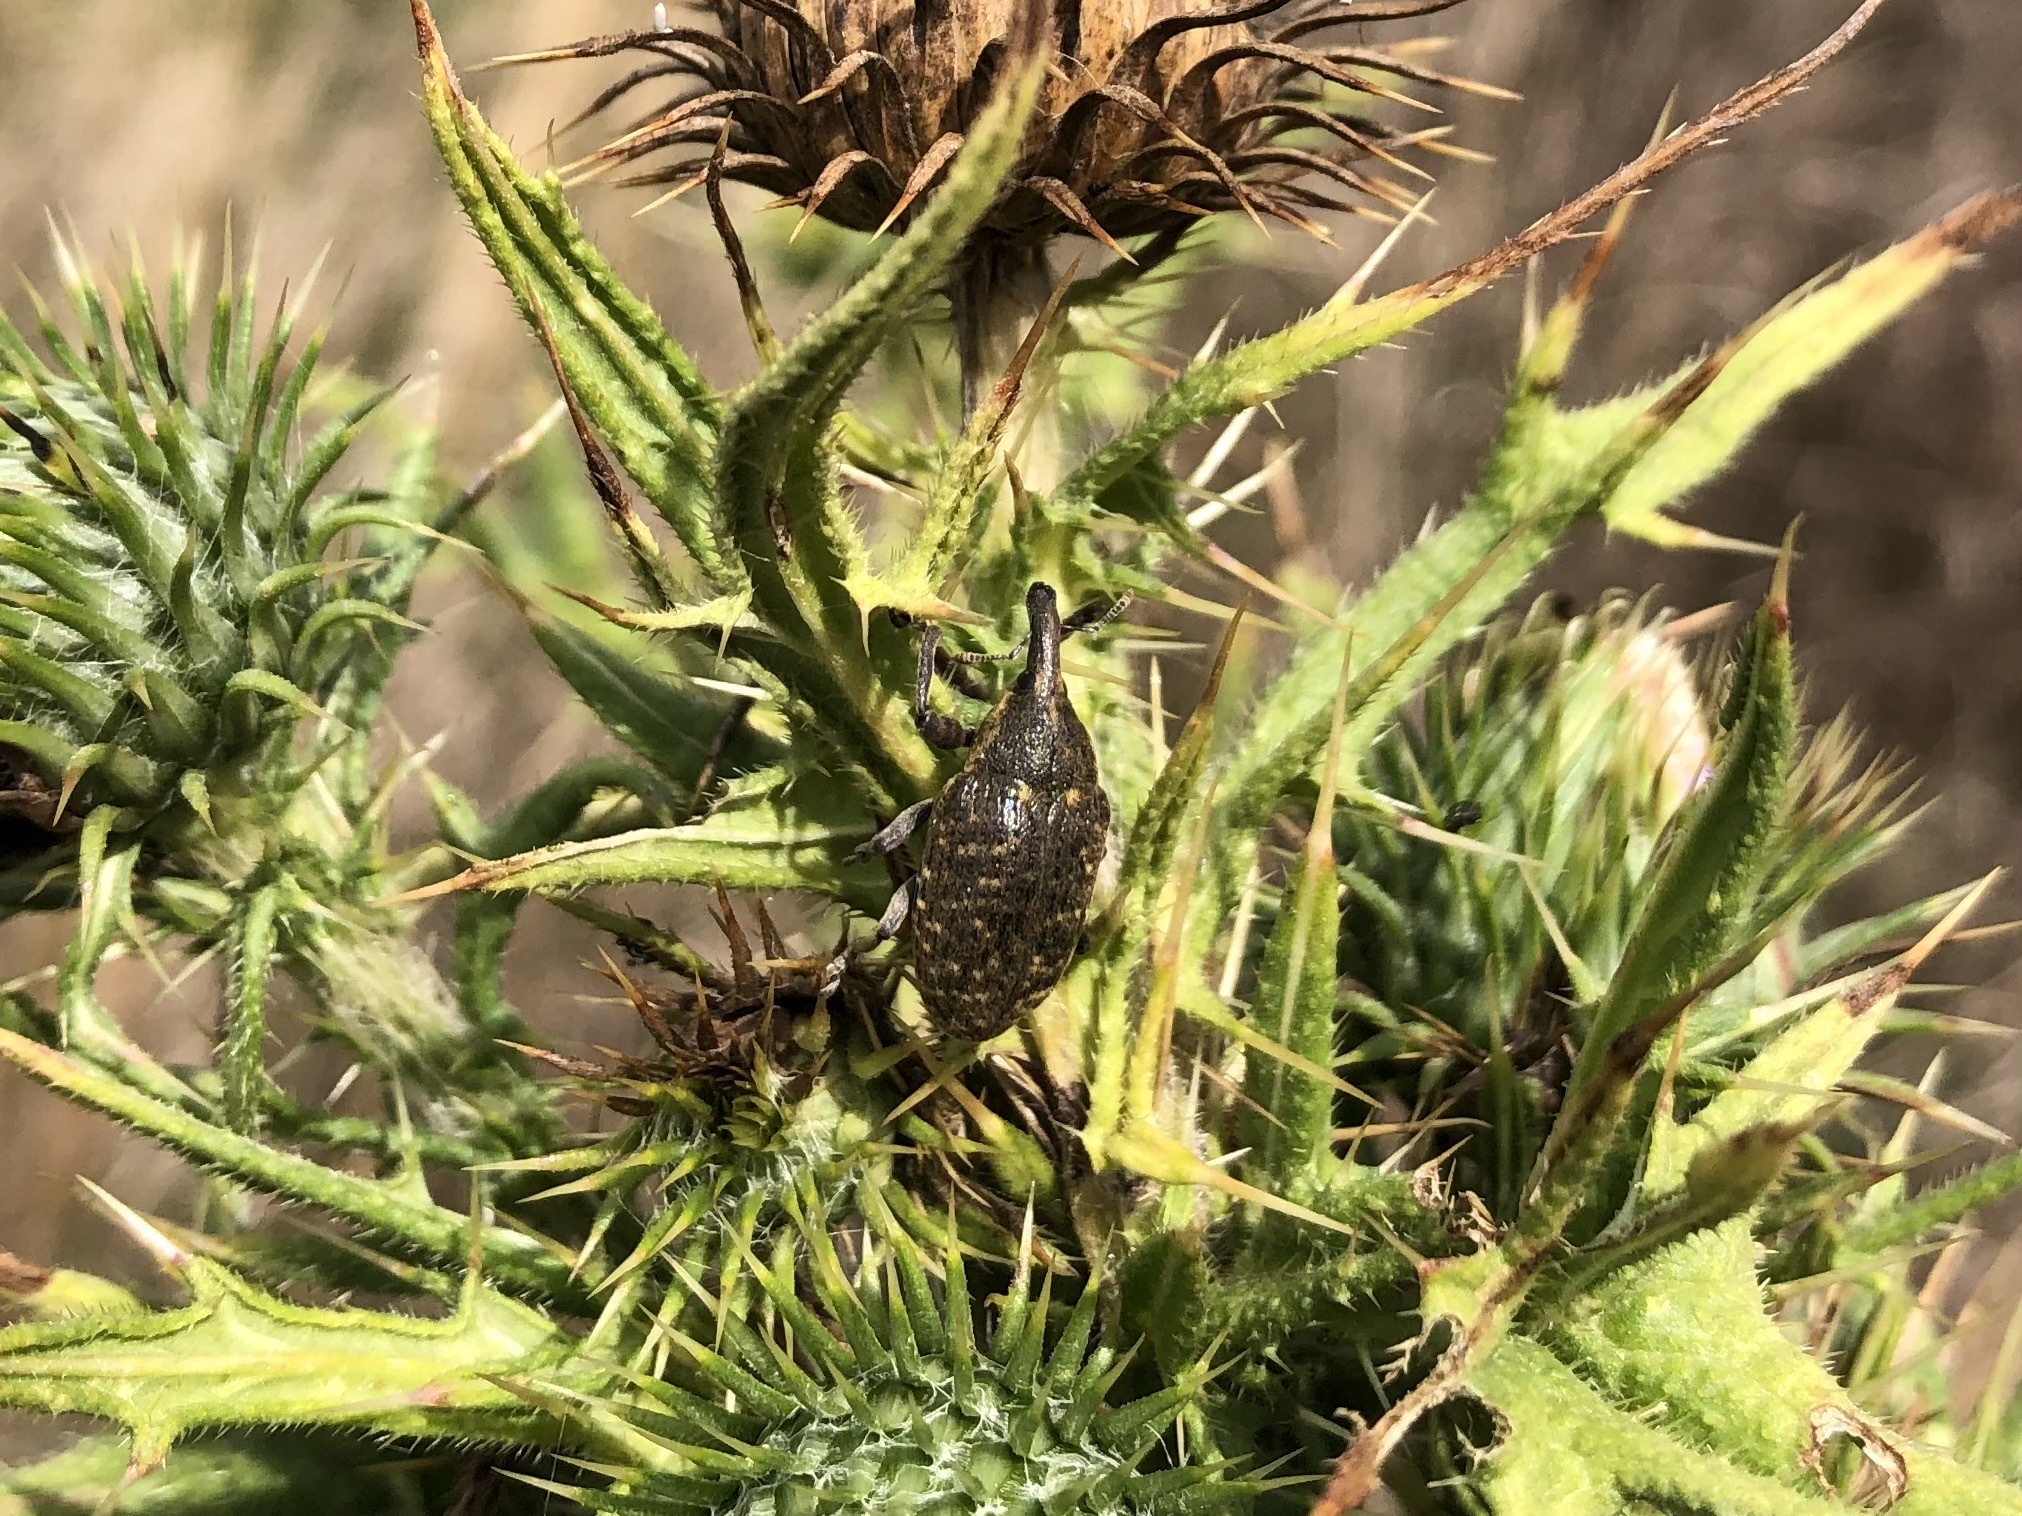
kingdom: Animalia
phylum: Arthropoda
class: Insecta
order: Coleoptera
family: Curculionidae
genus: Larinus
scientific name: Larinus sturnus
